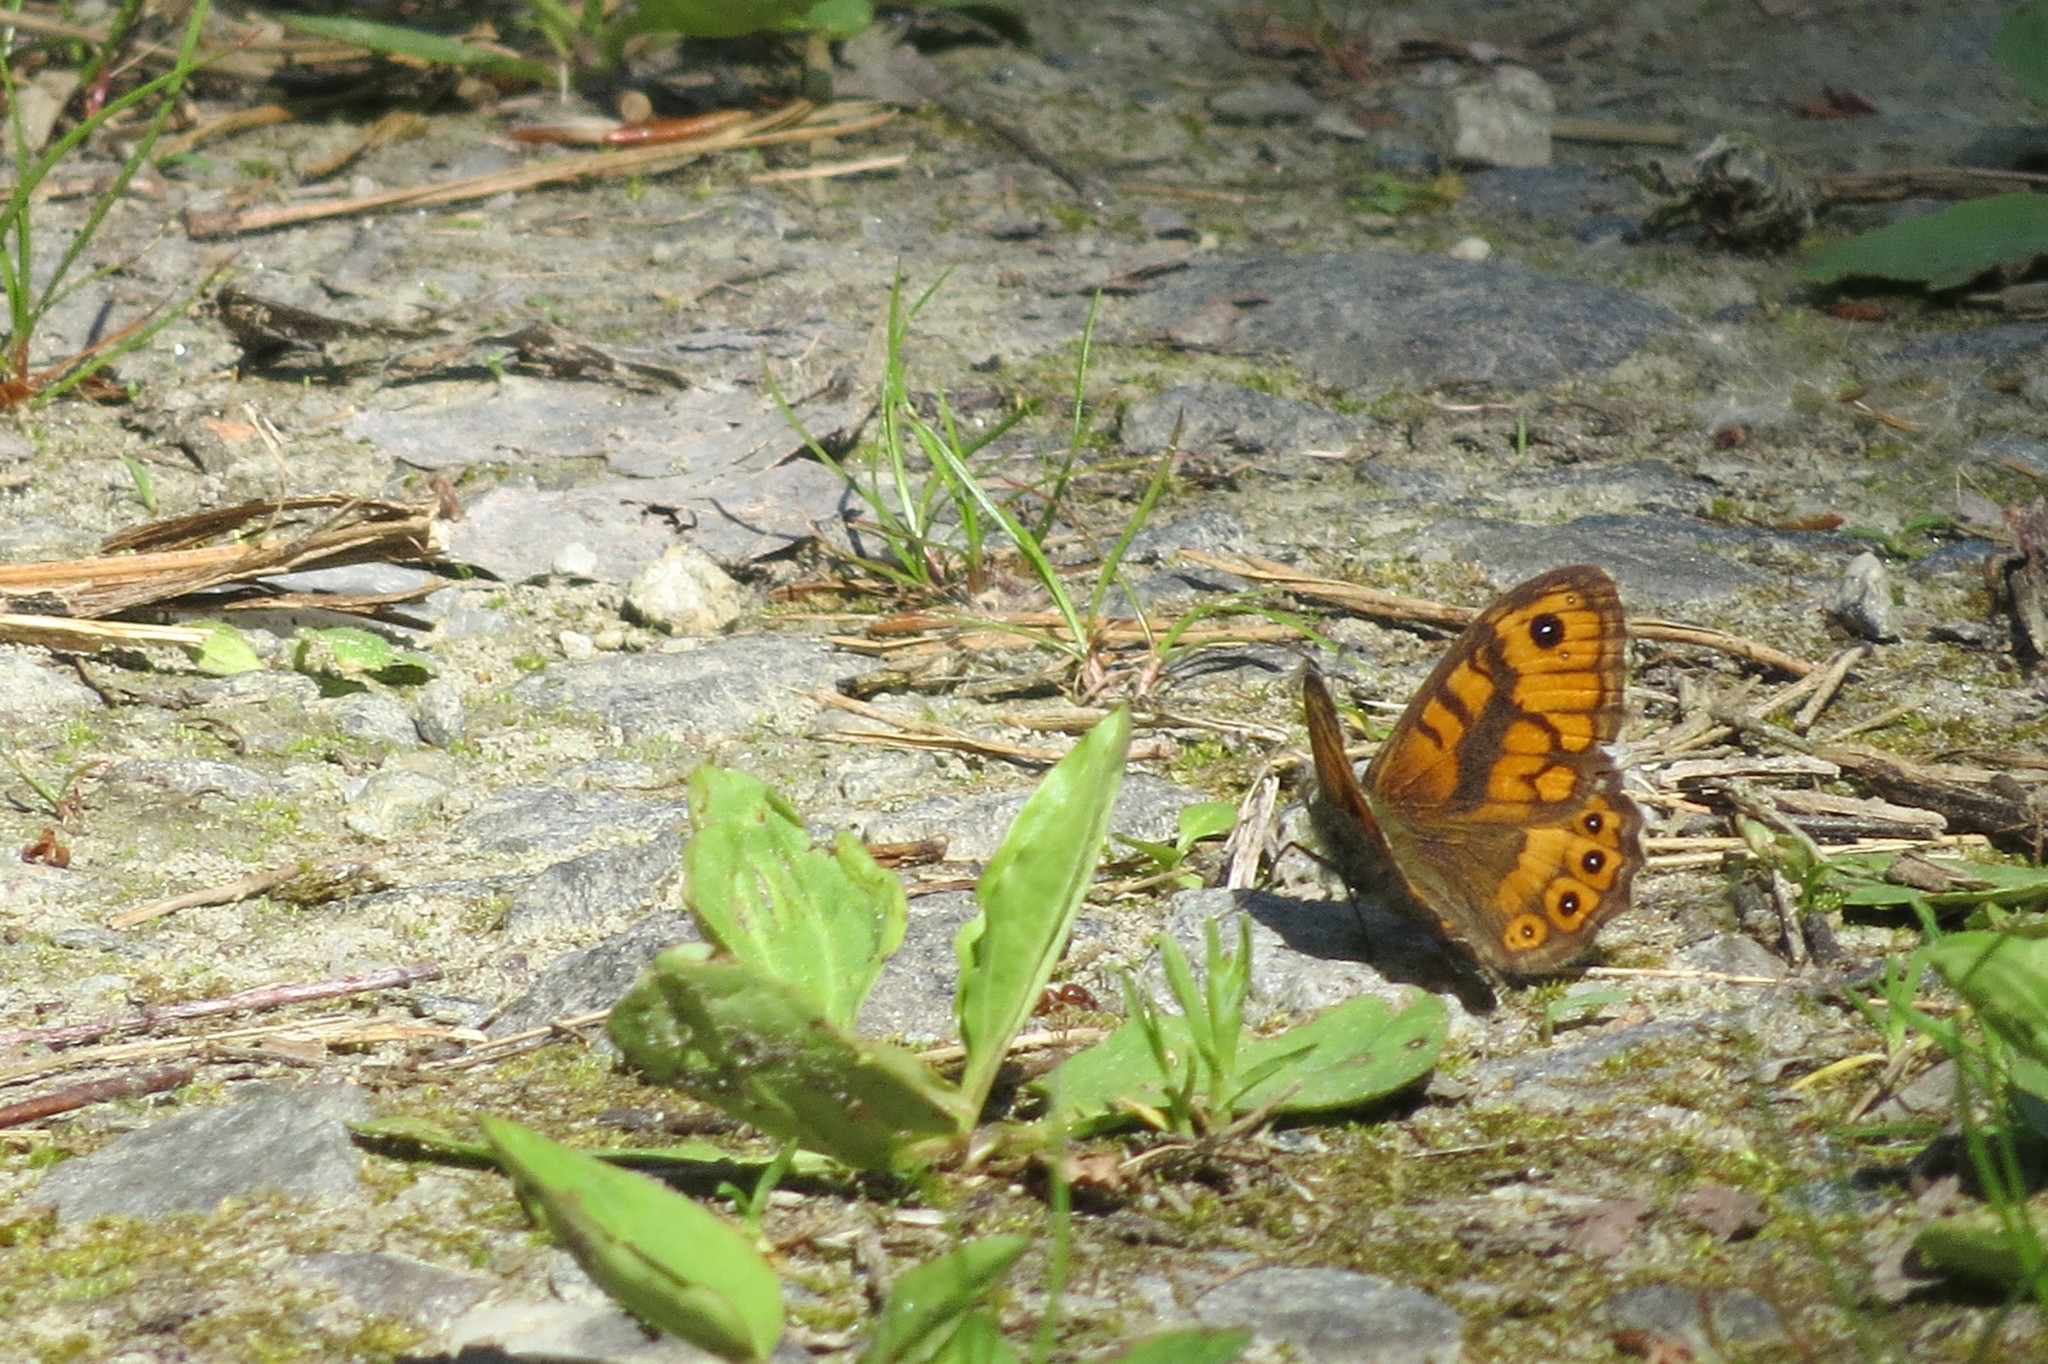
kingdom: Animalia
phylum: Arthropoda
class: Insecta
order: Lepidoptera
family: Nymphalidae
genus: Pararge
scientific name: Pararge Lasiommata megera
